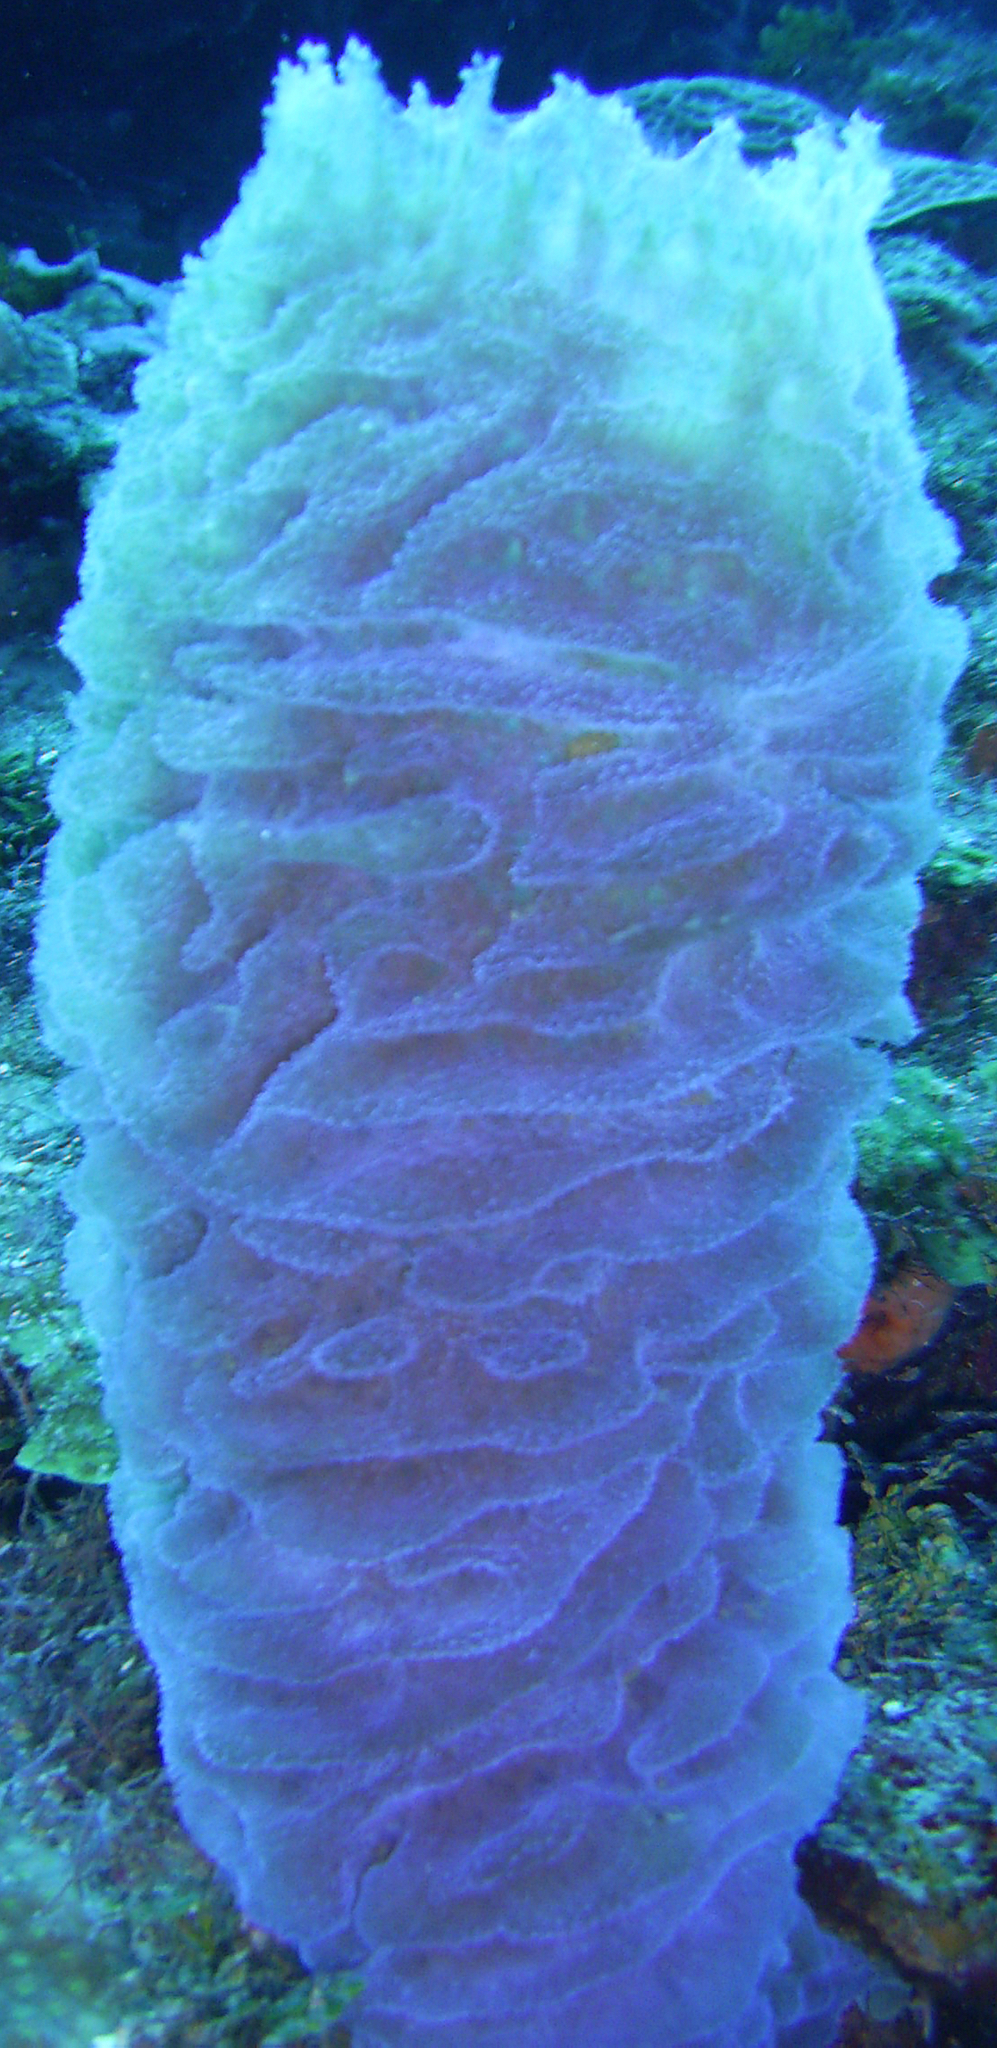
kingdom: Animalia
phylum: Porifera
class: Demospongiae
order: Haplosclerida
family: Callyspongiidae
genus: Callyspongia
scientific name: Callyspongia plicifera
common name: Azure vase sponge
